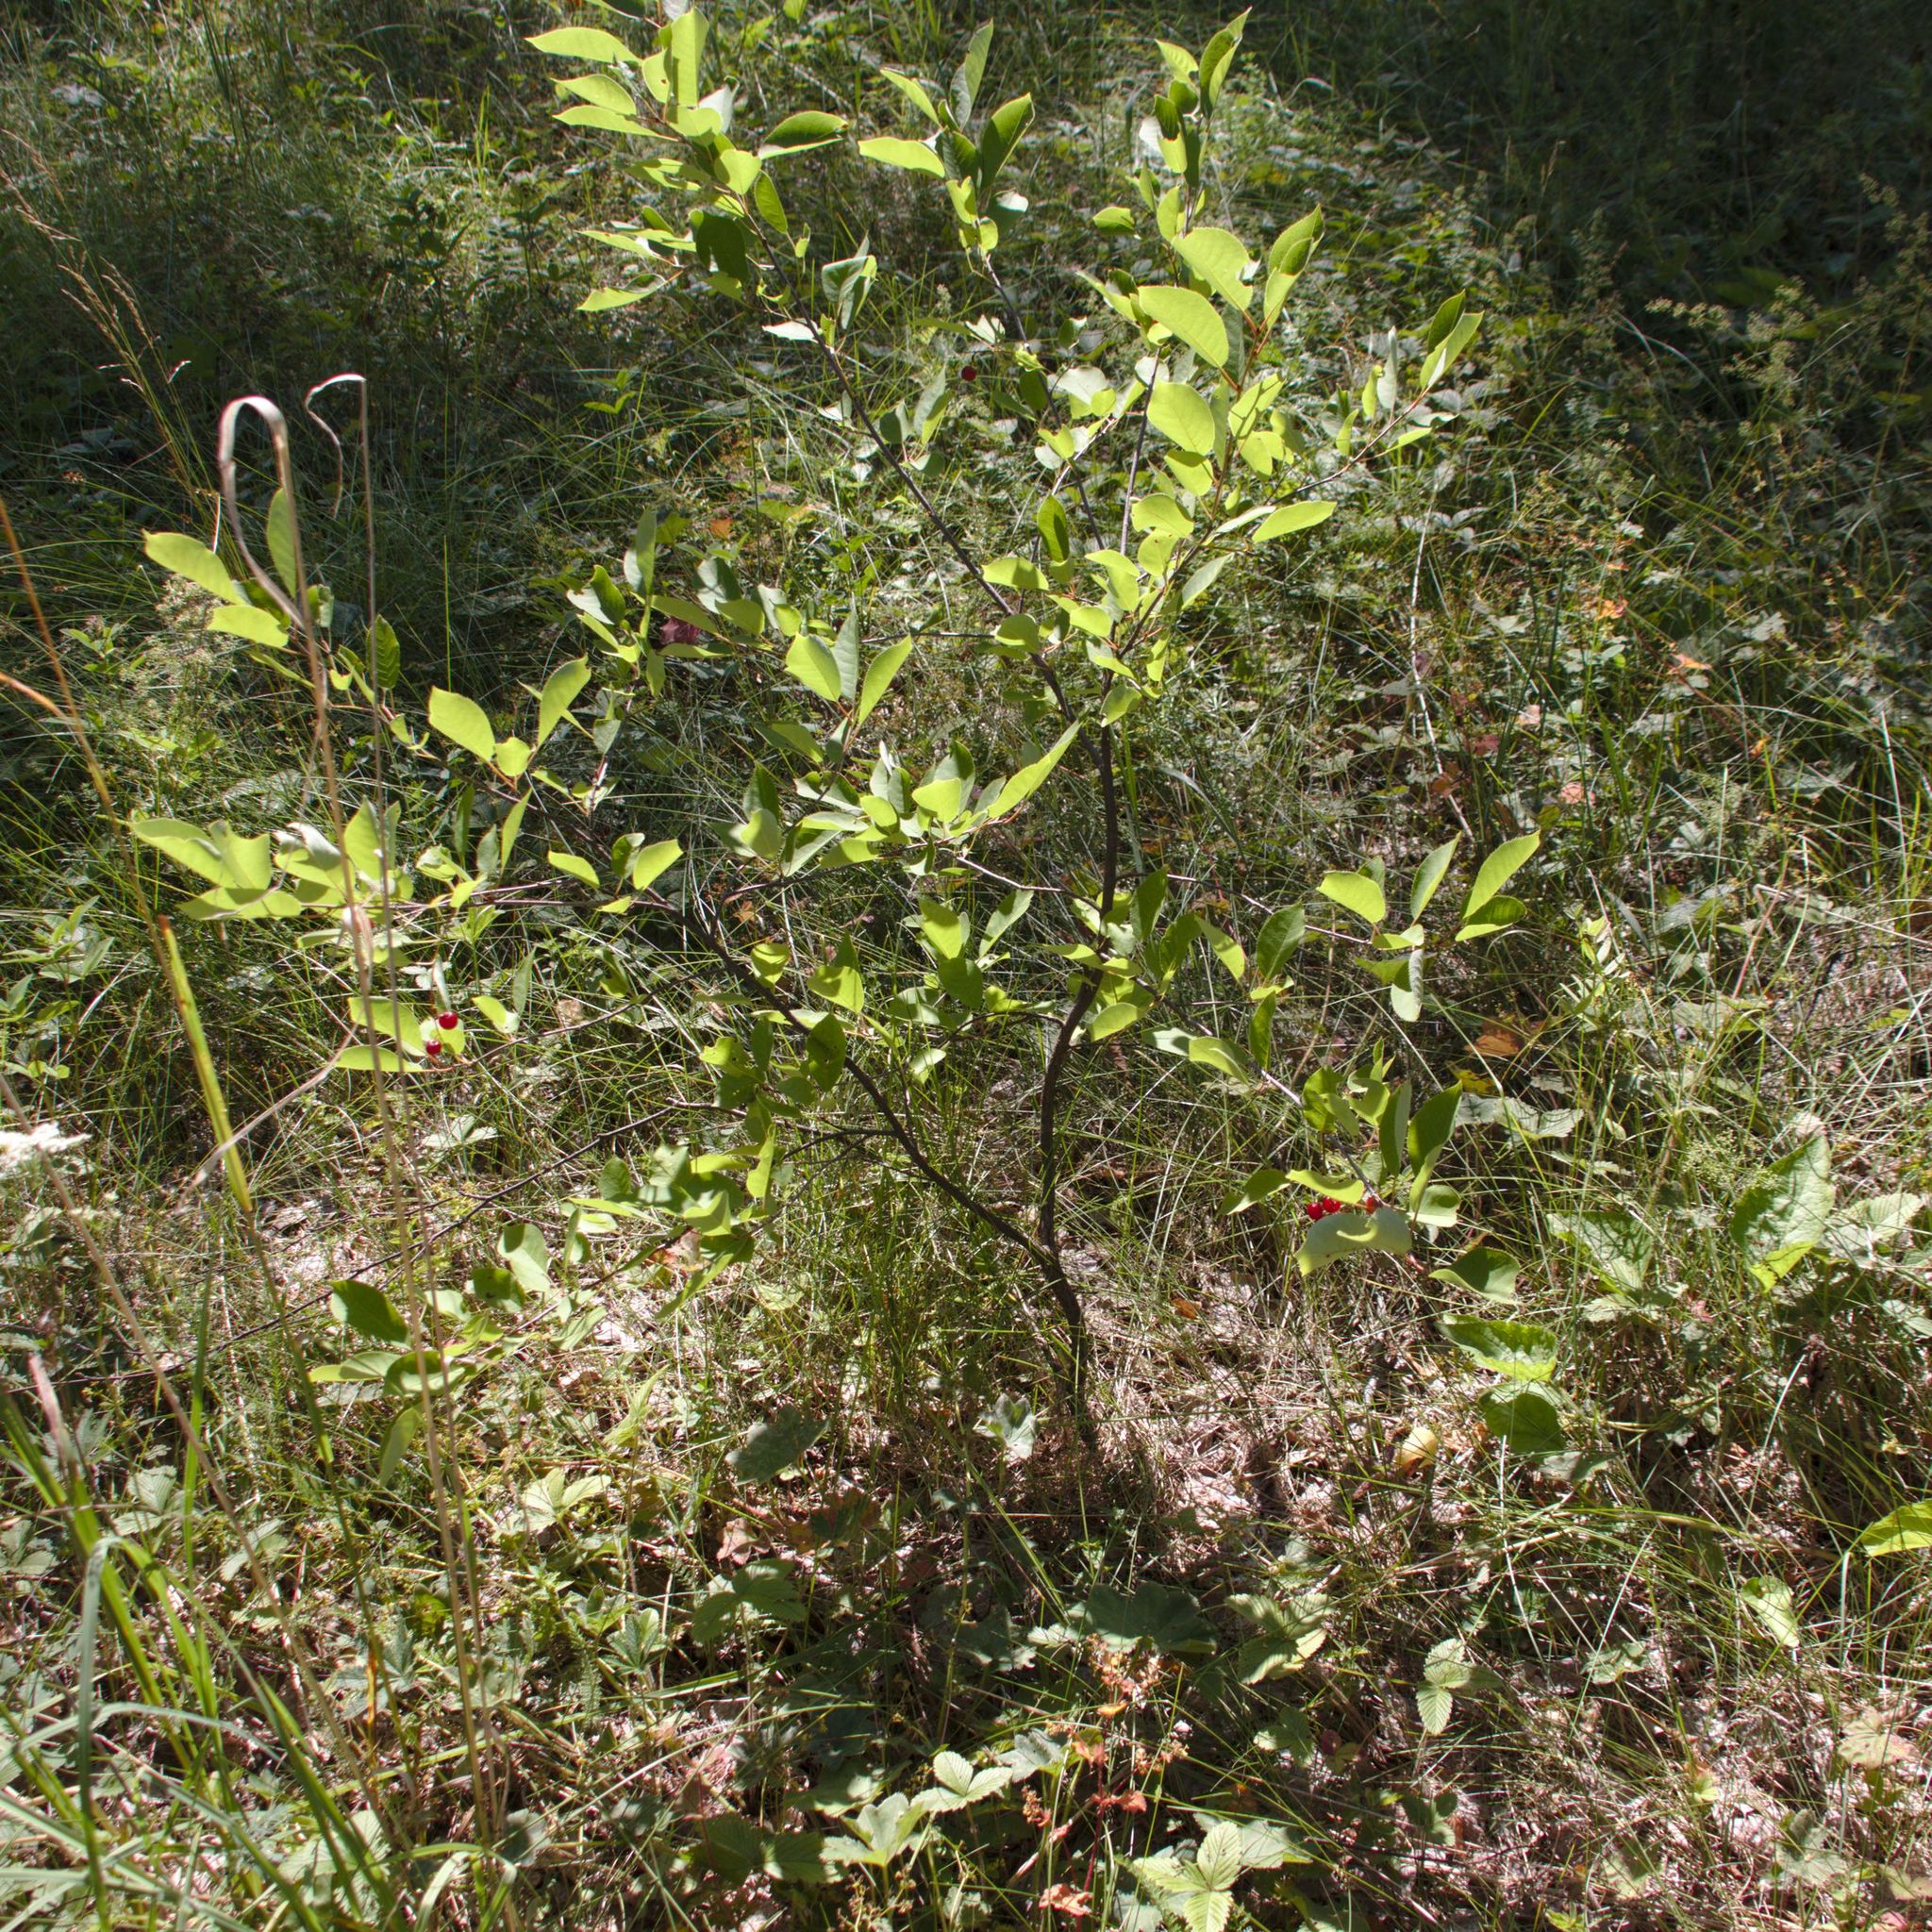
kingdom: Plantae
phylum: Tracheophyta
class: Magnoliopsida
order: Rosales
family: Rosaceae
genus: Prunus
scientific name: Prunus virginiana
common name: Chokecherry
